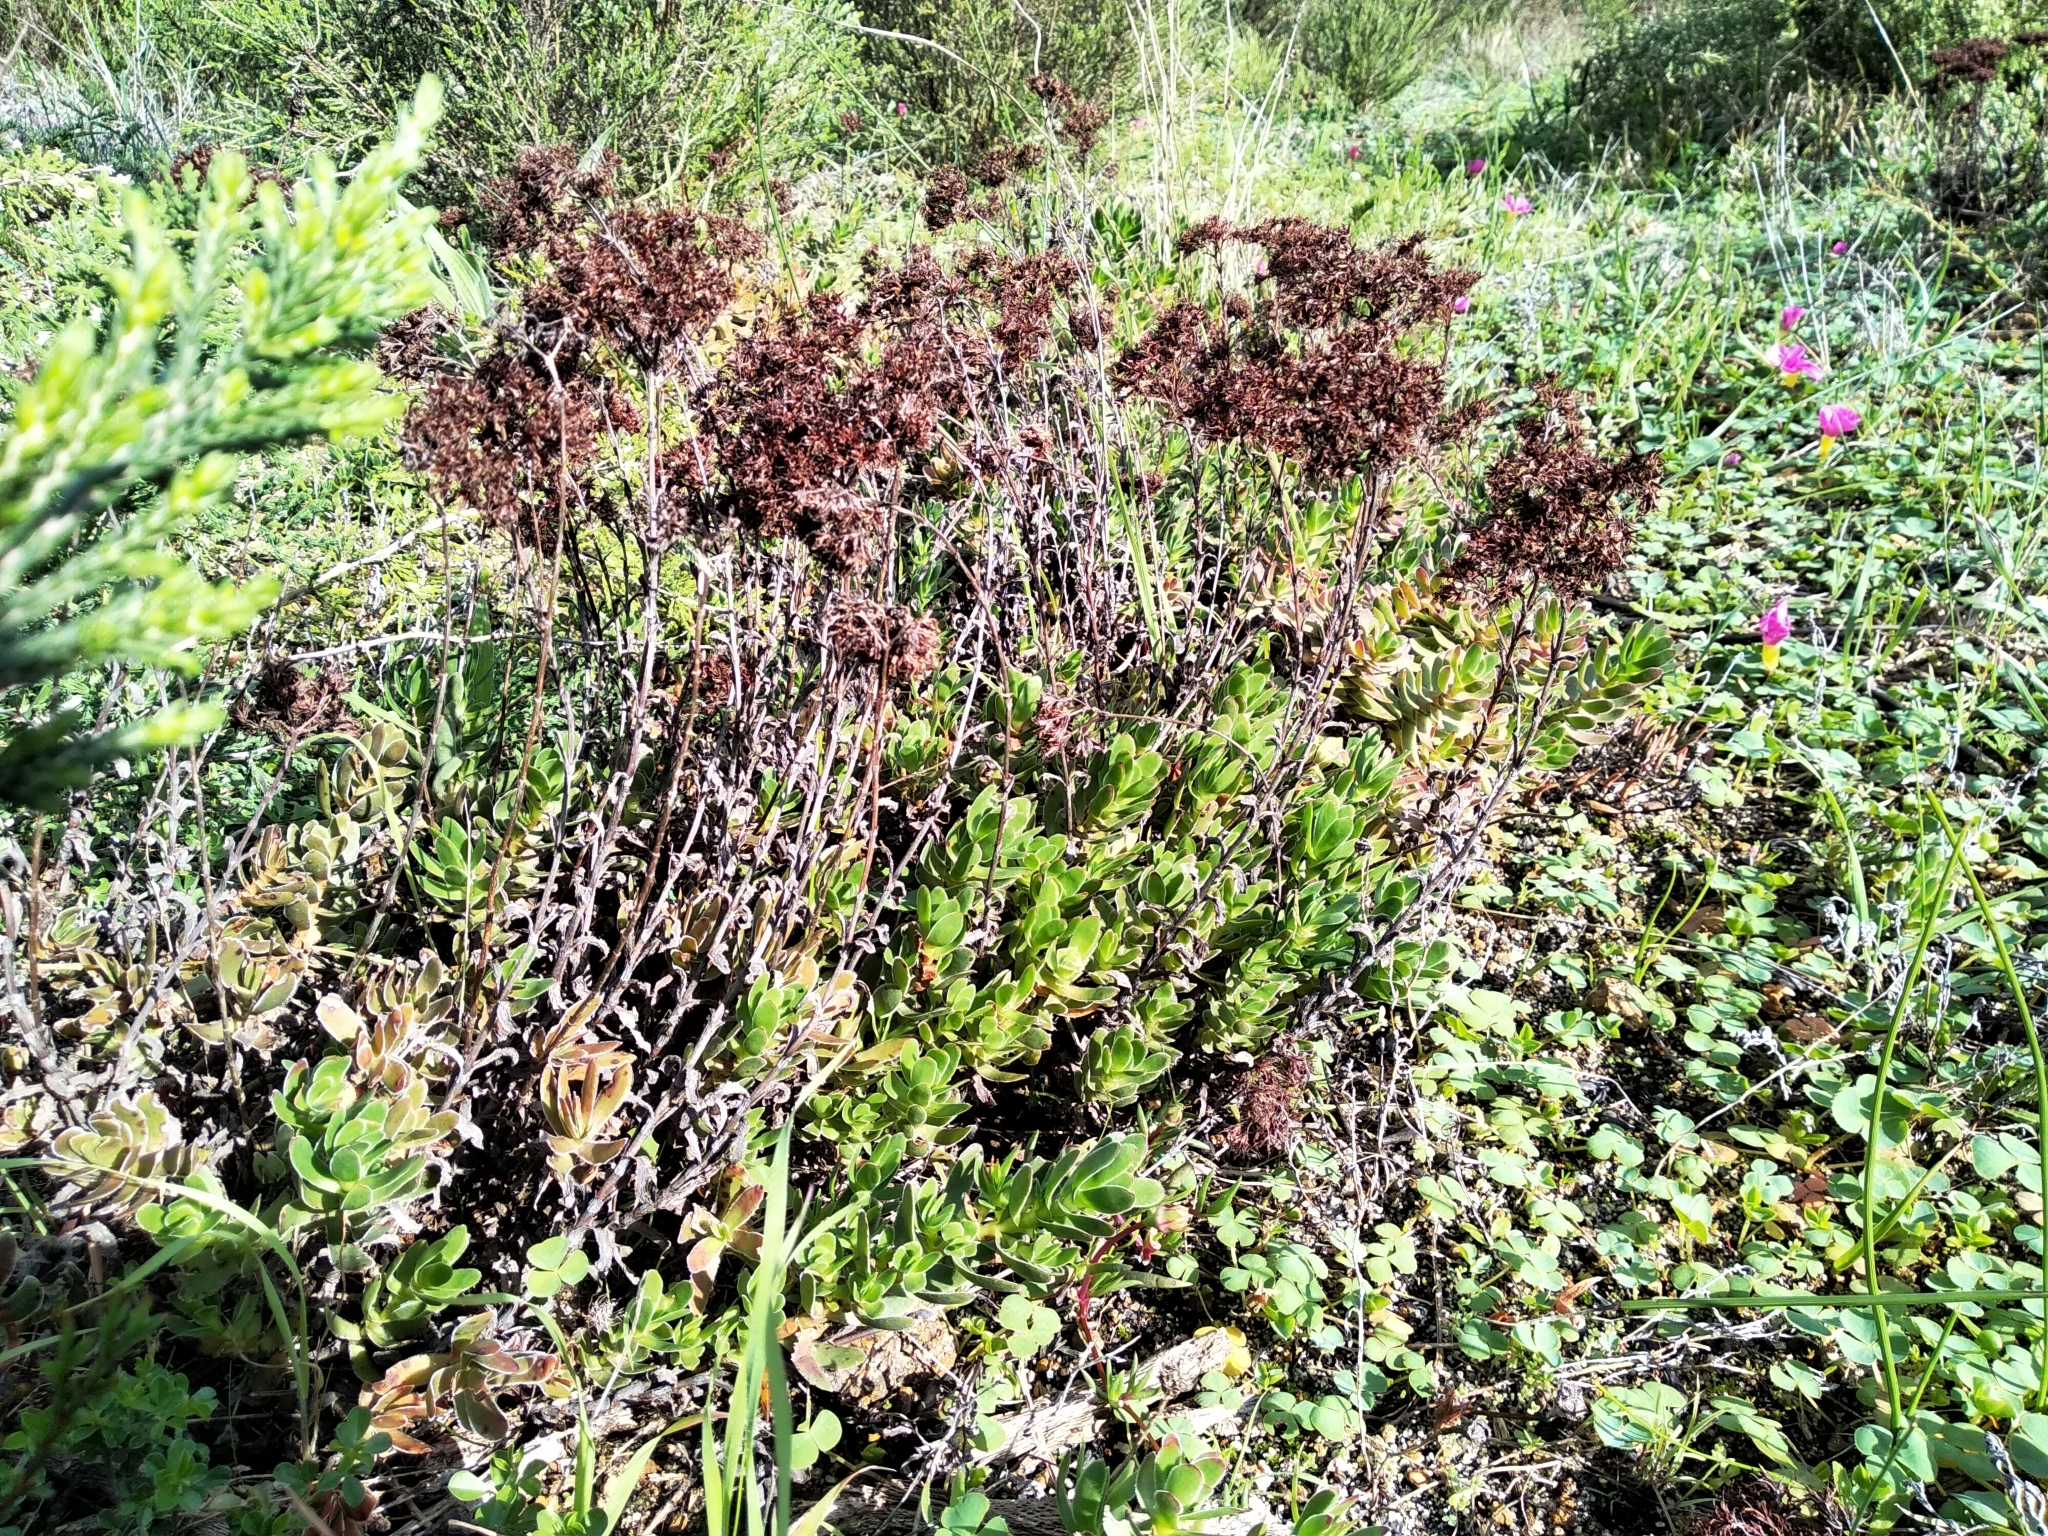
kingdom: Plantae
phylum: Tracheophyta
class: Magnoliopsida
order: Saxifragales
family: Crassulaceae
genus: Crassula
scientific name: Crassula fallax
